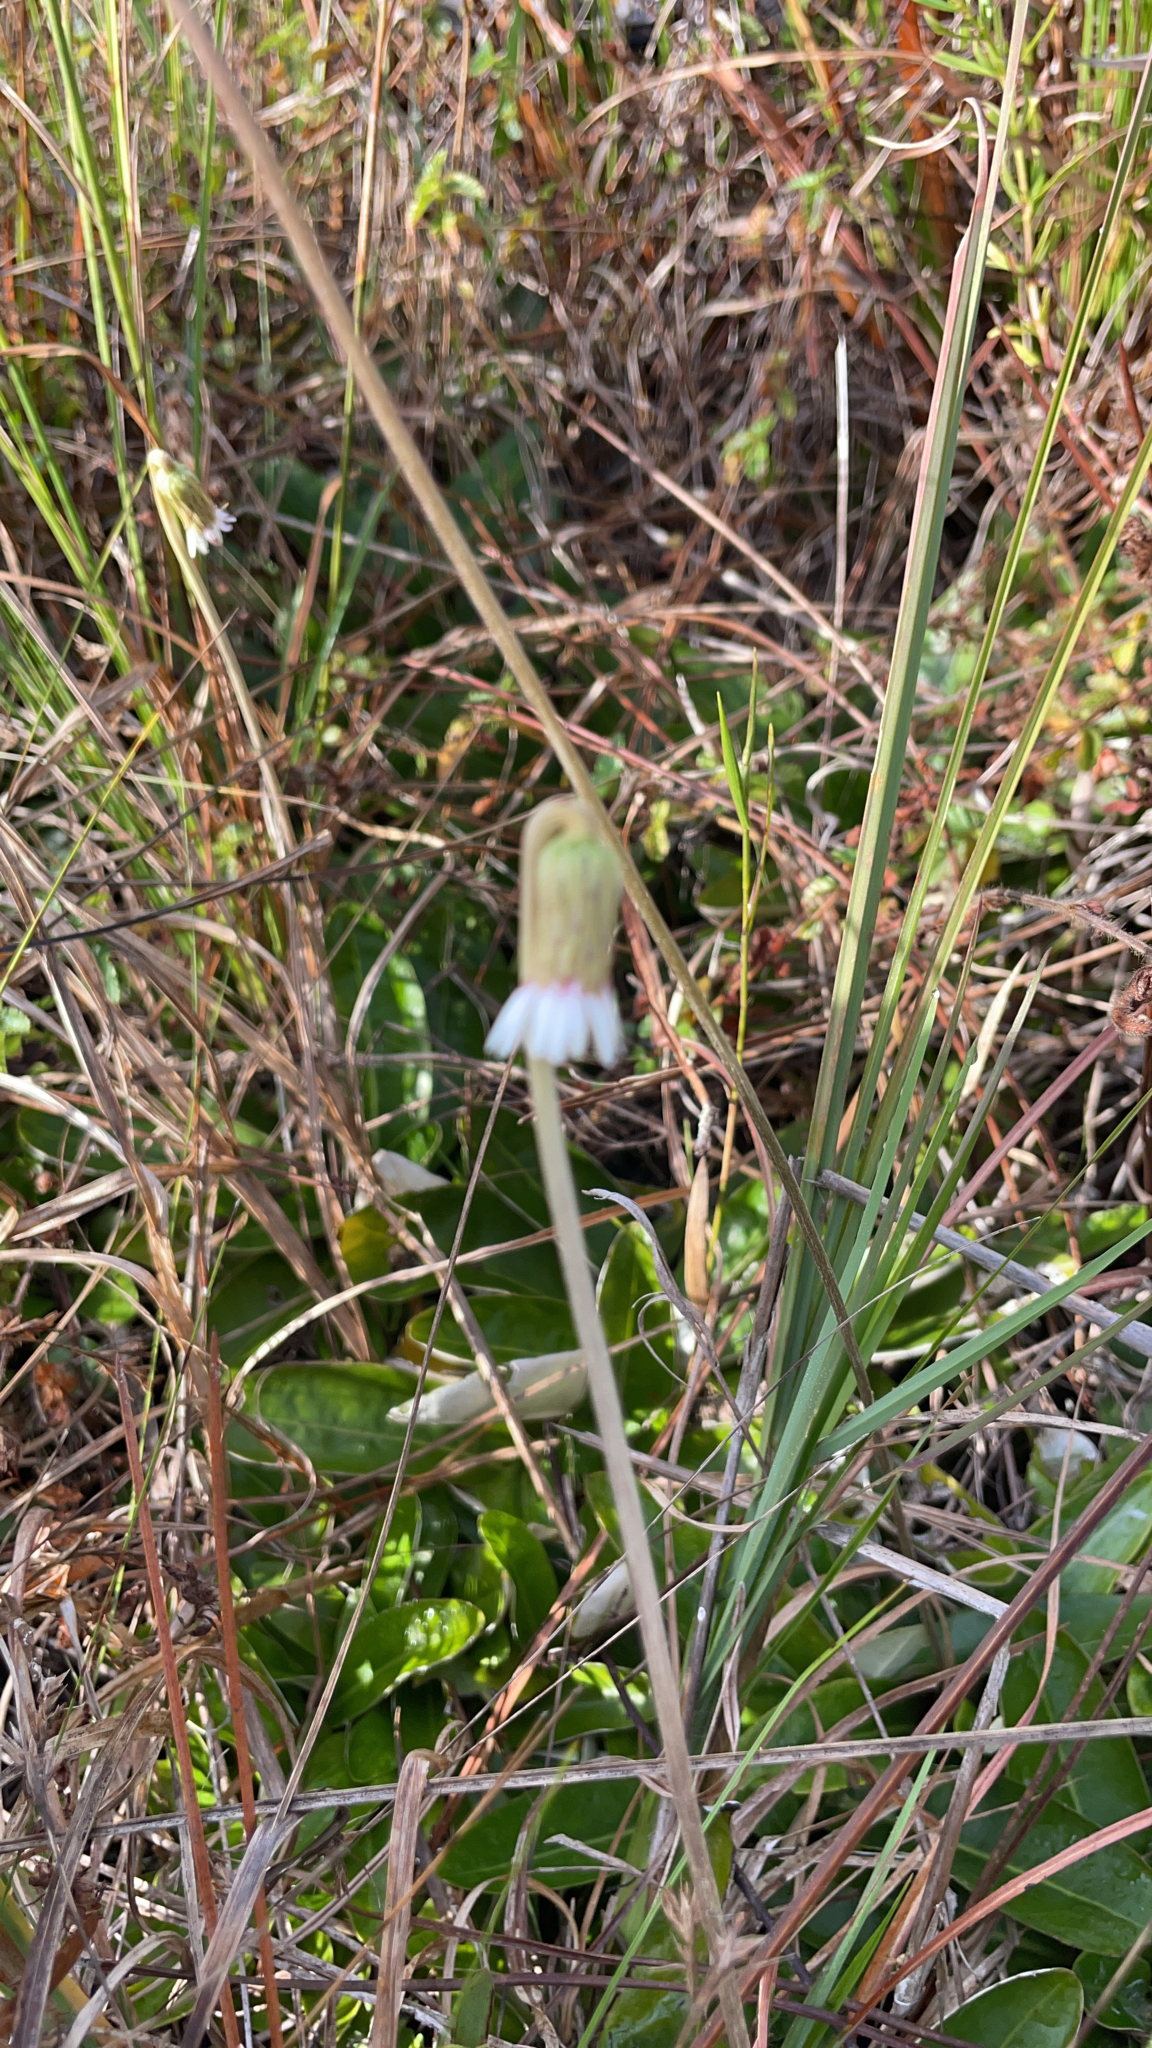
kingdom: Plantae
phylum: Tracheophyta
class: Magnoliopsida
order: Asterales
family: Asteraceae
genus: Chaptalia
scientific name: Chaptalia tomentosa
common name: Woolly sunbonnet
